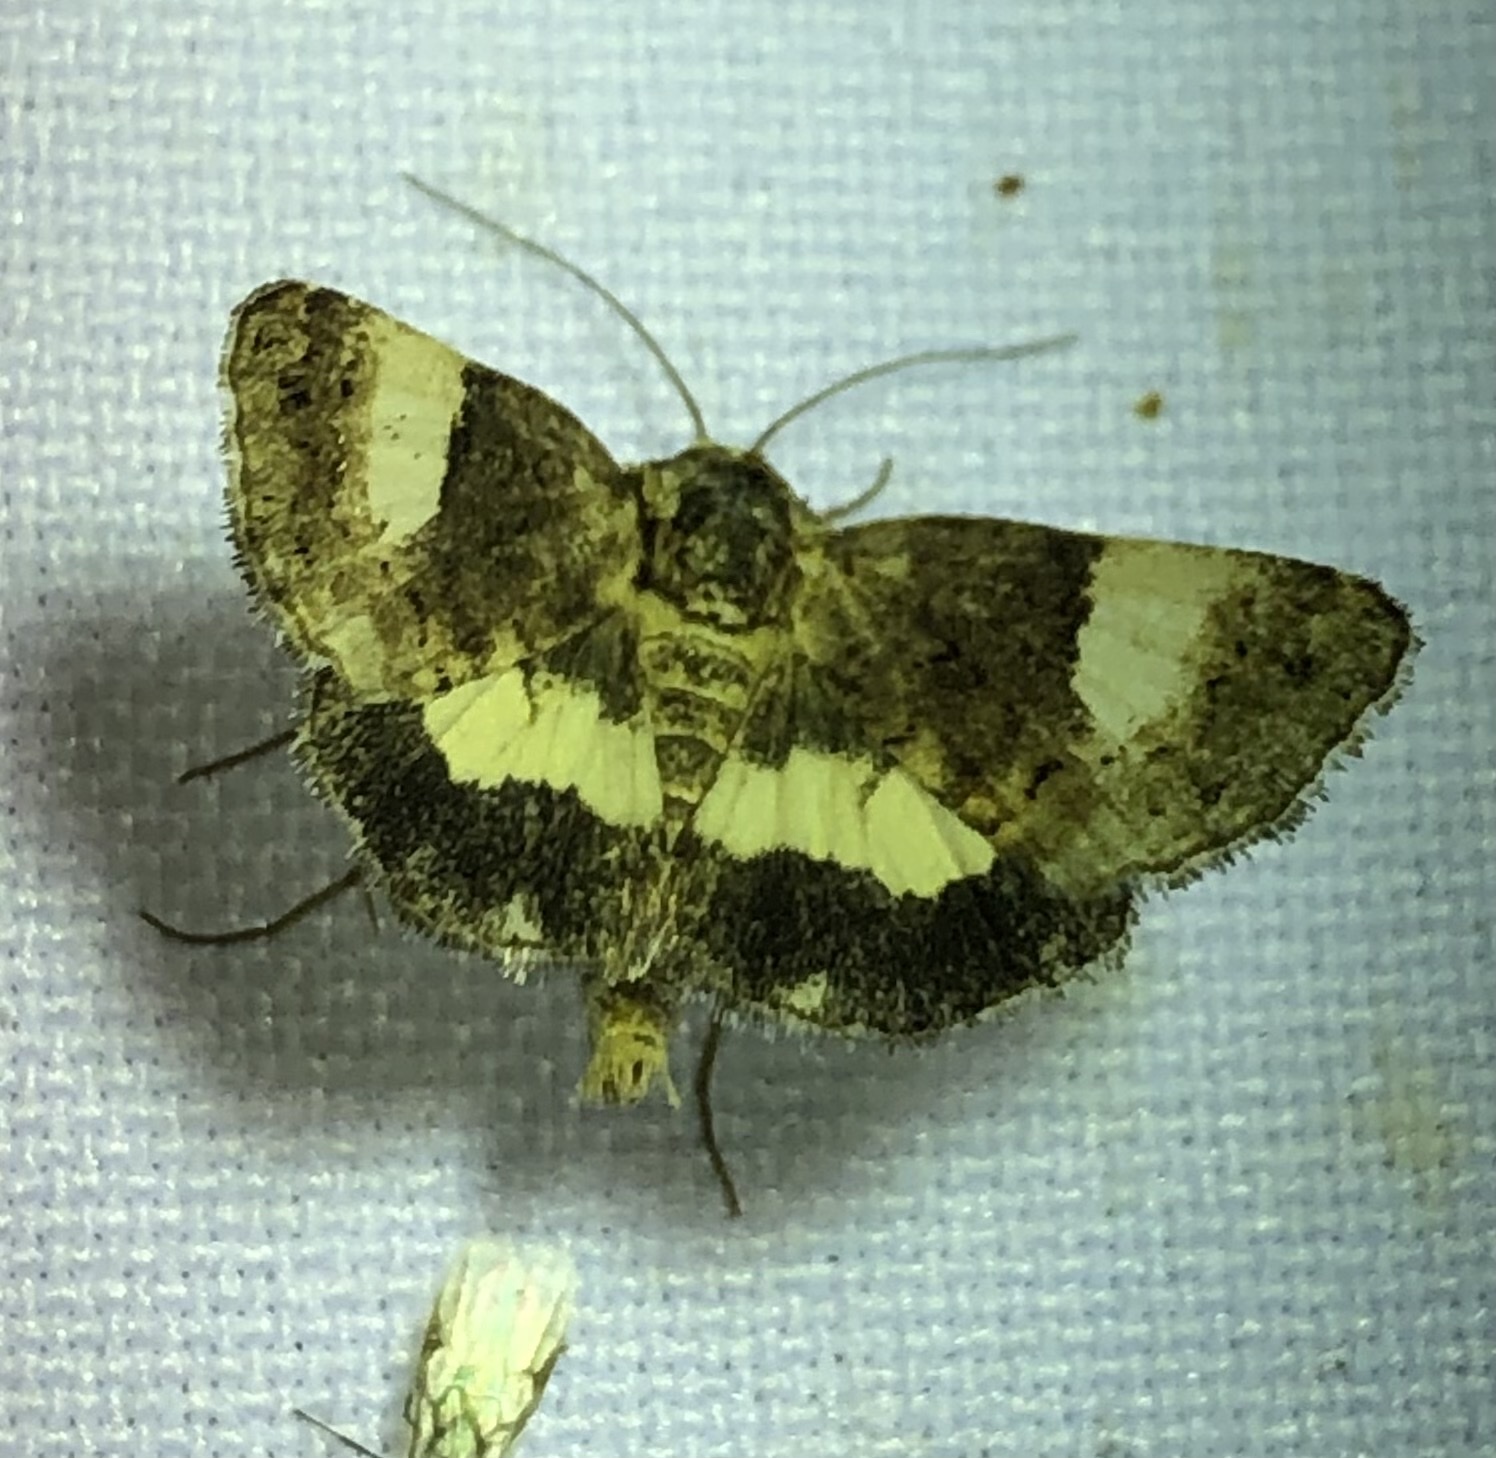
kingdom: Animalia
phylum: Arthropoda
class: Insecta
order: Lepidoptera
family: Erebidae
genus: Tyta
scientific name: Tyta luctuosa
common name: Four-spotted
